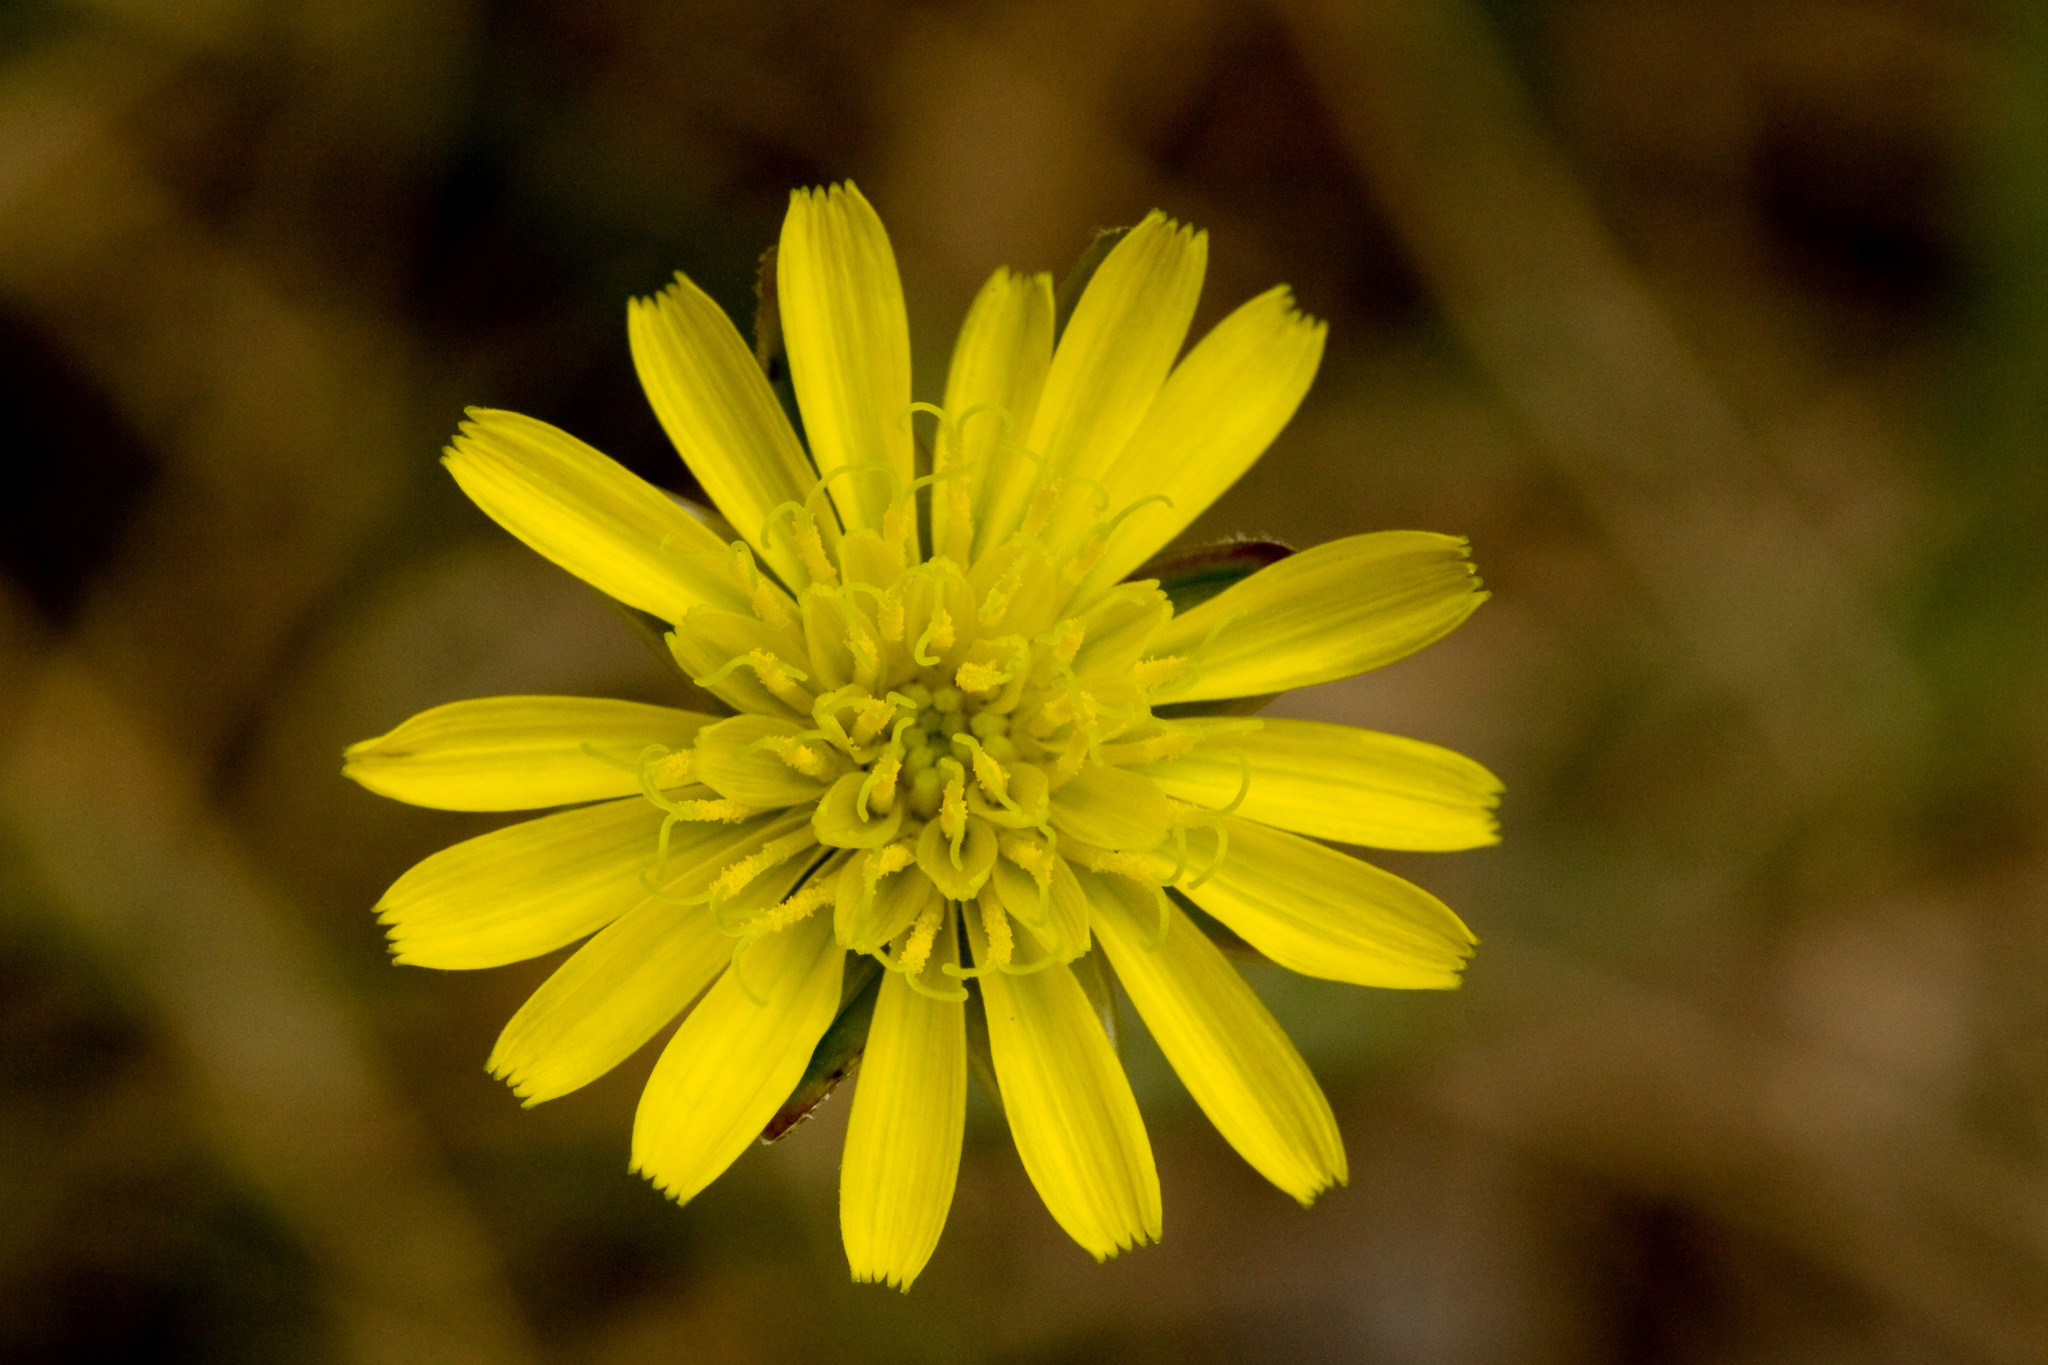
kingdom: Plantae
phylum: Tracheophyta
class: Magnoliopsida
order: Asterales
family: Asteraceae
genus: Scorzonera
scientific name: Scorzonera laciniata
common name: Cutleaf vipergrass
